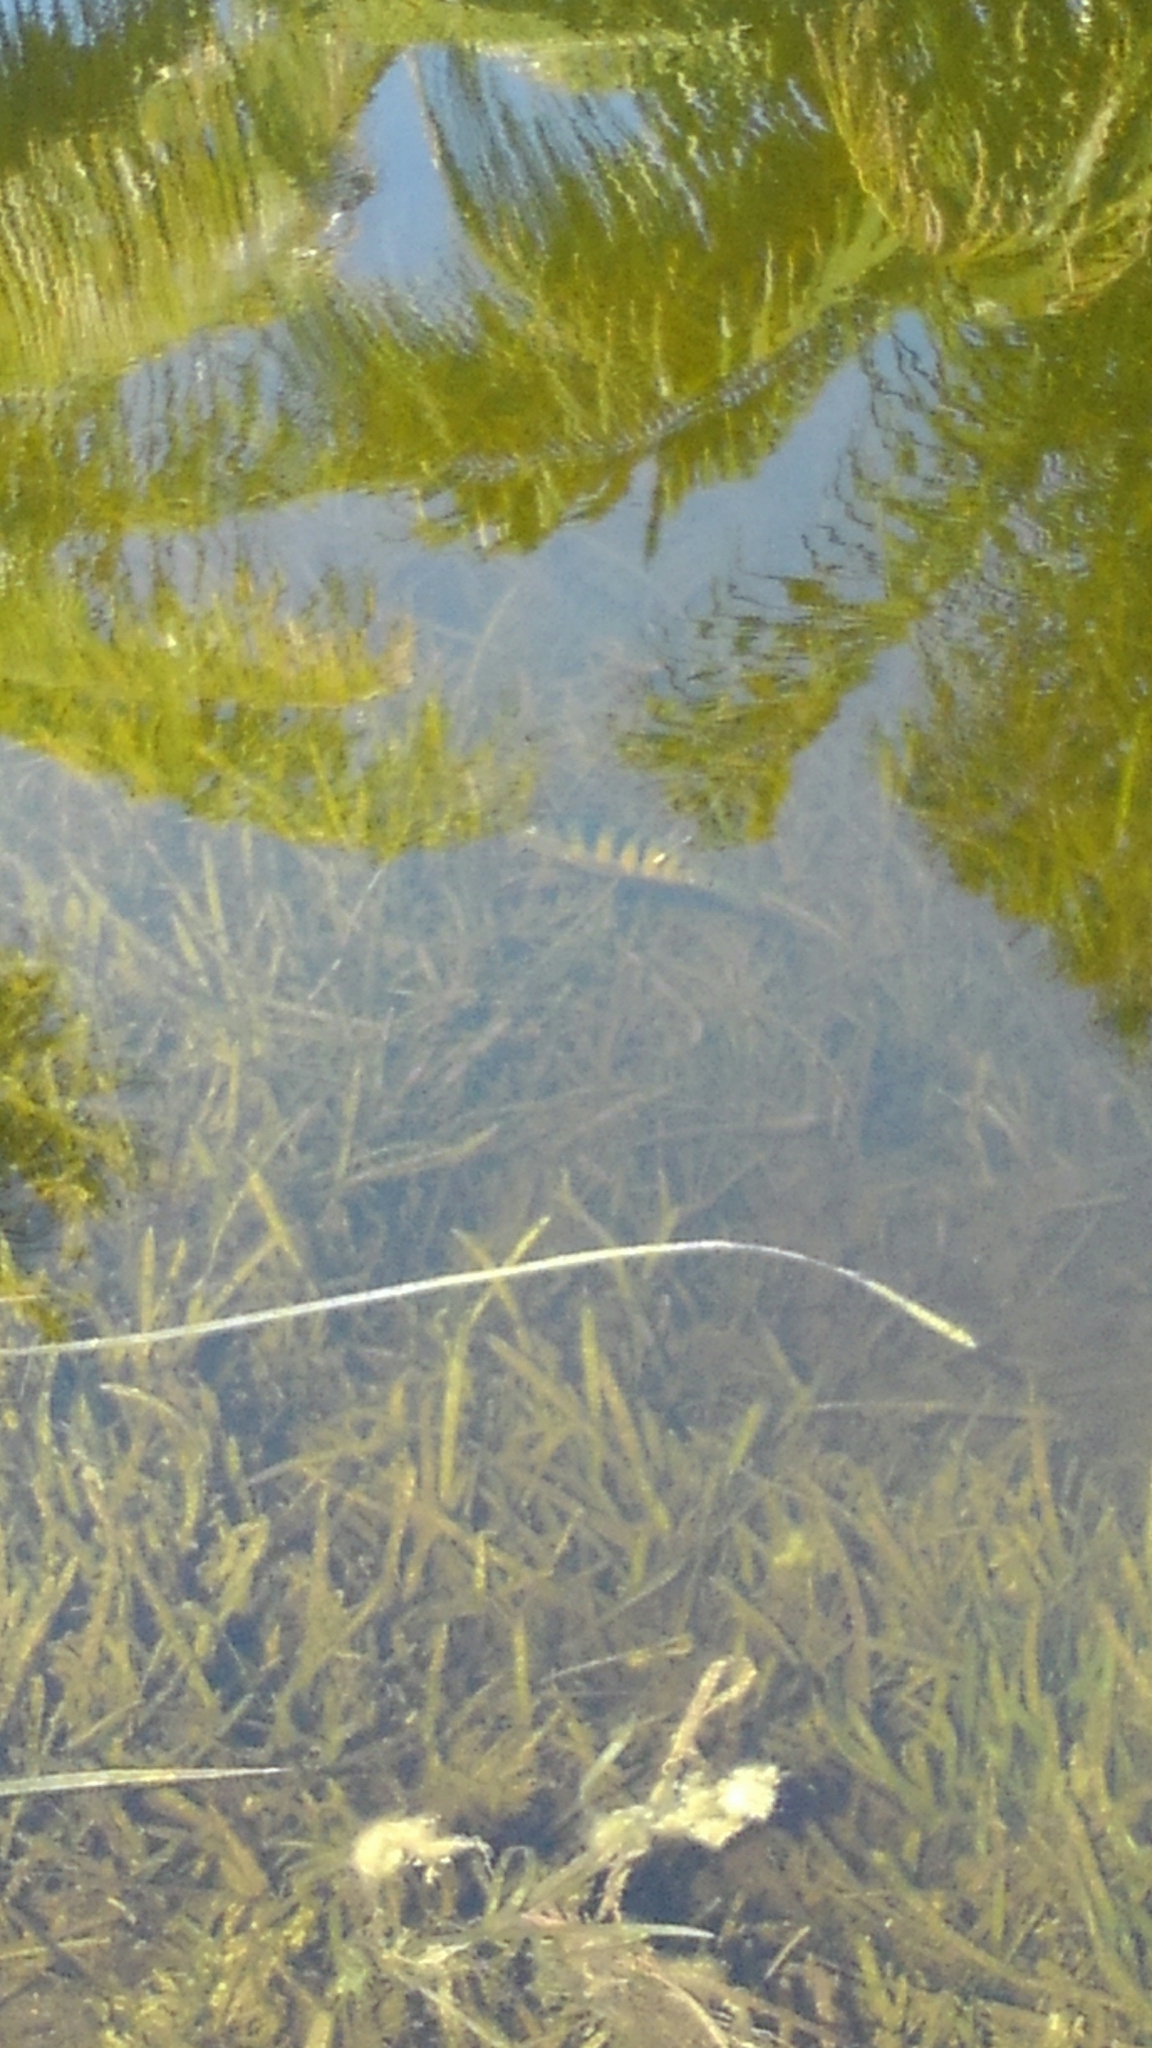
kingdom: Animalia
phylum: Chordata
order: Perciformes
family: Cichlidae
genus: Mayaheros
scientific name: Mayaheros urophthalmus
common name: Mayan cichlid
